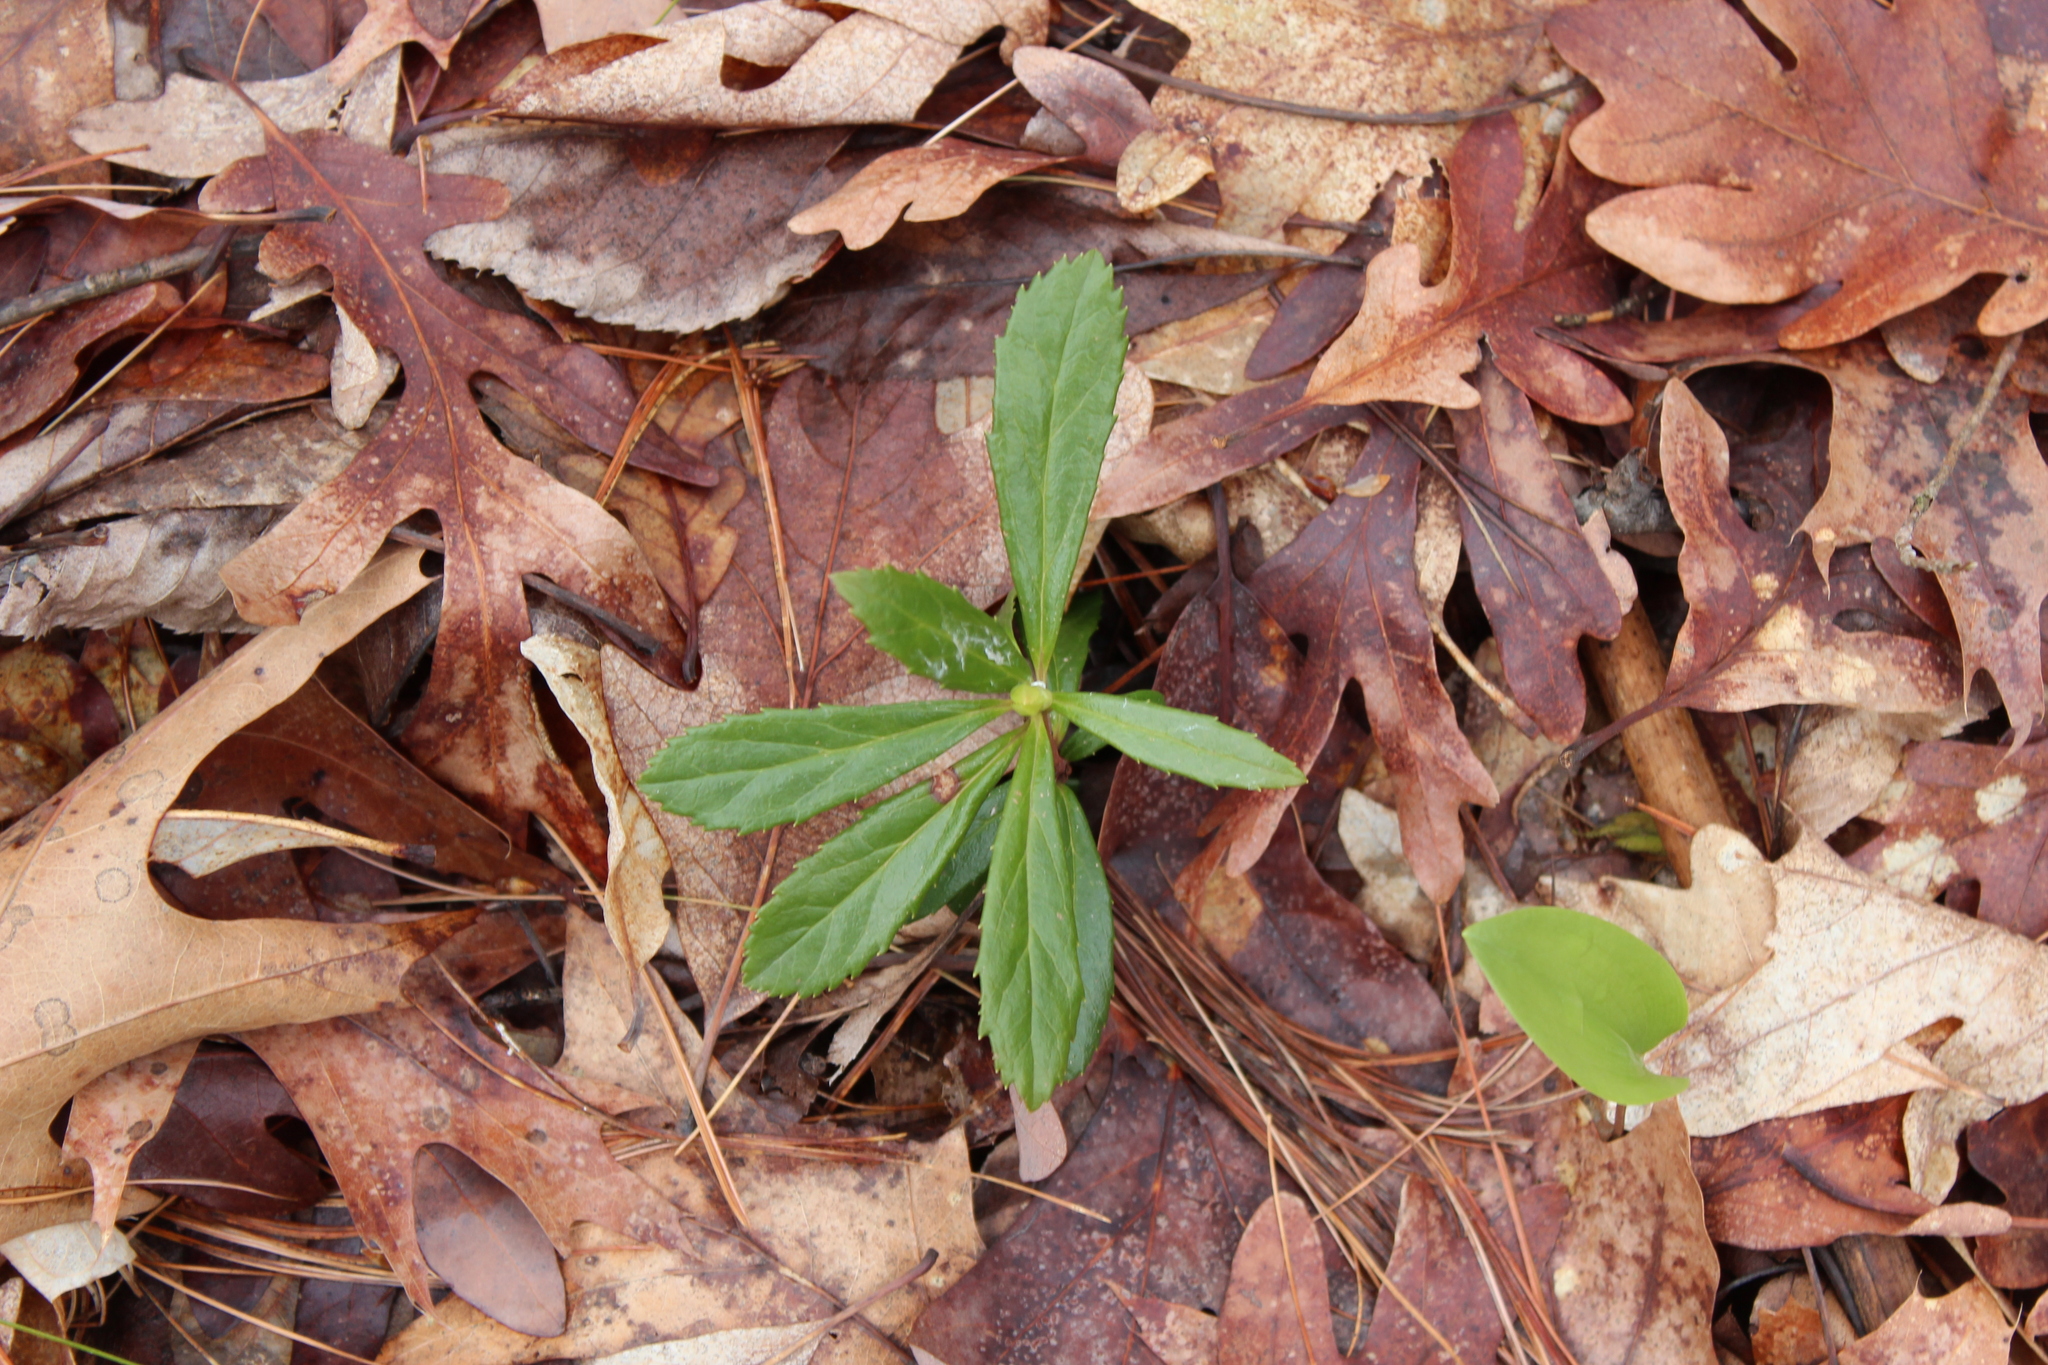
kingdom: Plantae
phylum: Tracheophyta
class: Magnoliopsida
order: Ericales
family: Ericaceae
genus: Chimaphila
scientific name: Chimaphila umbellata
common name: Pipsissewa
